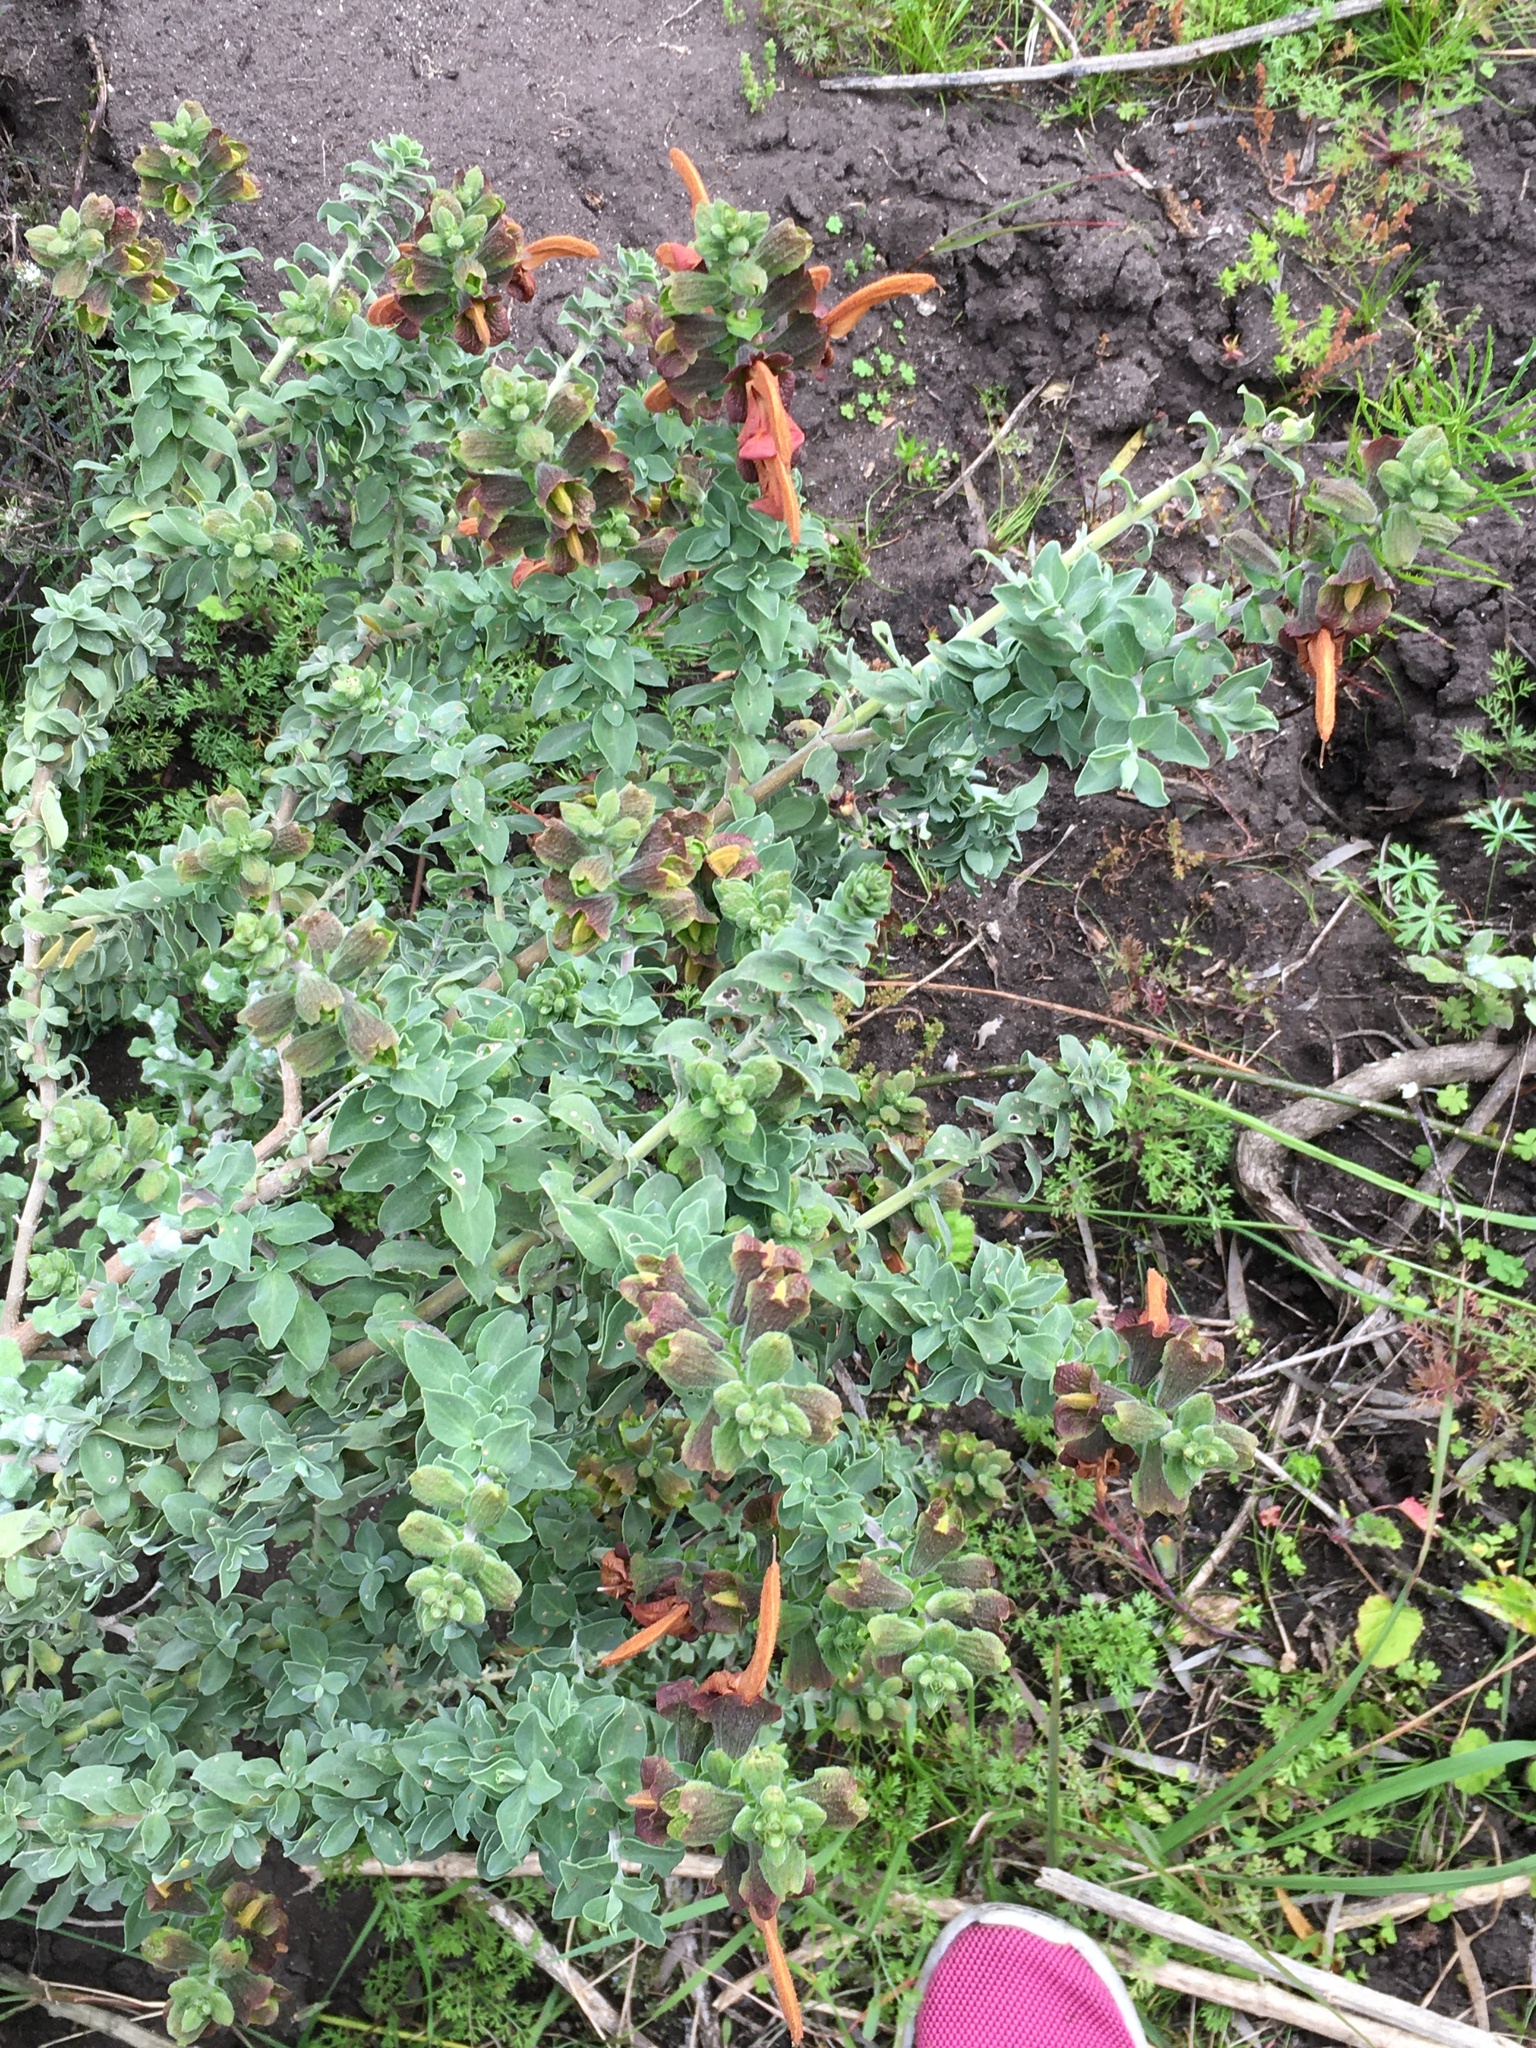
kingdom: Plantae
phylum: Tracheophyta
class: Magnoliopsida
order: Lamiales
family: Lamiaceae
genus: Salvia
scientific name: Salvia aurea
